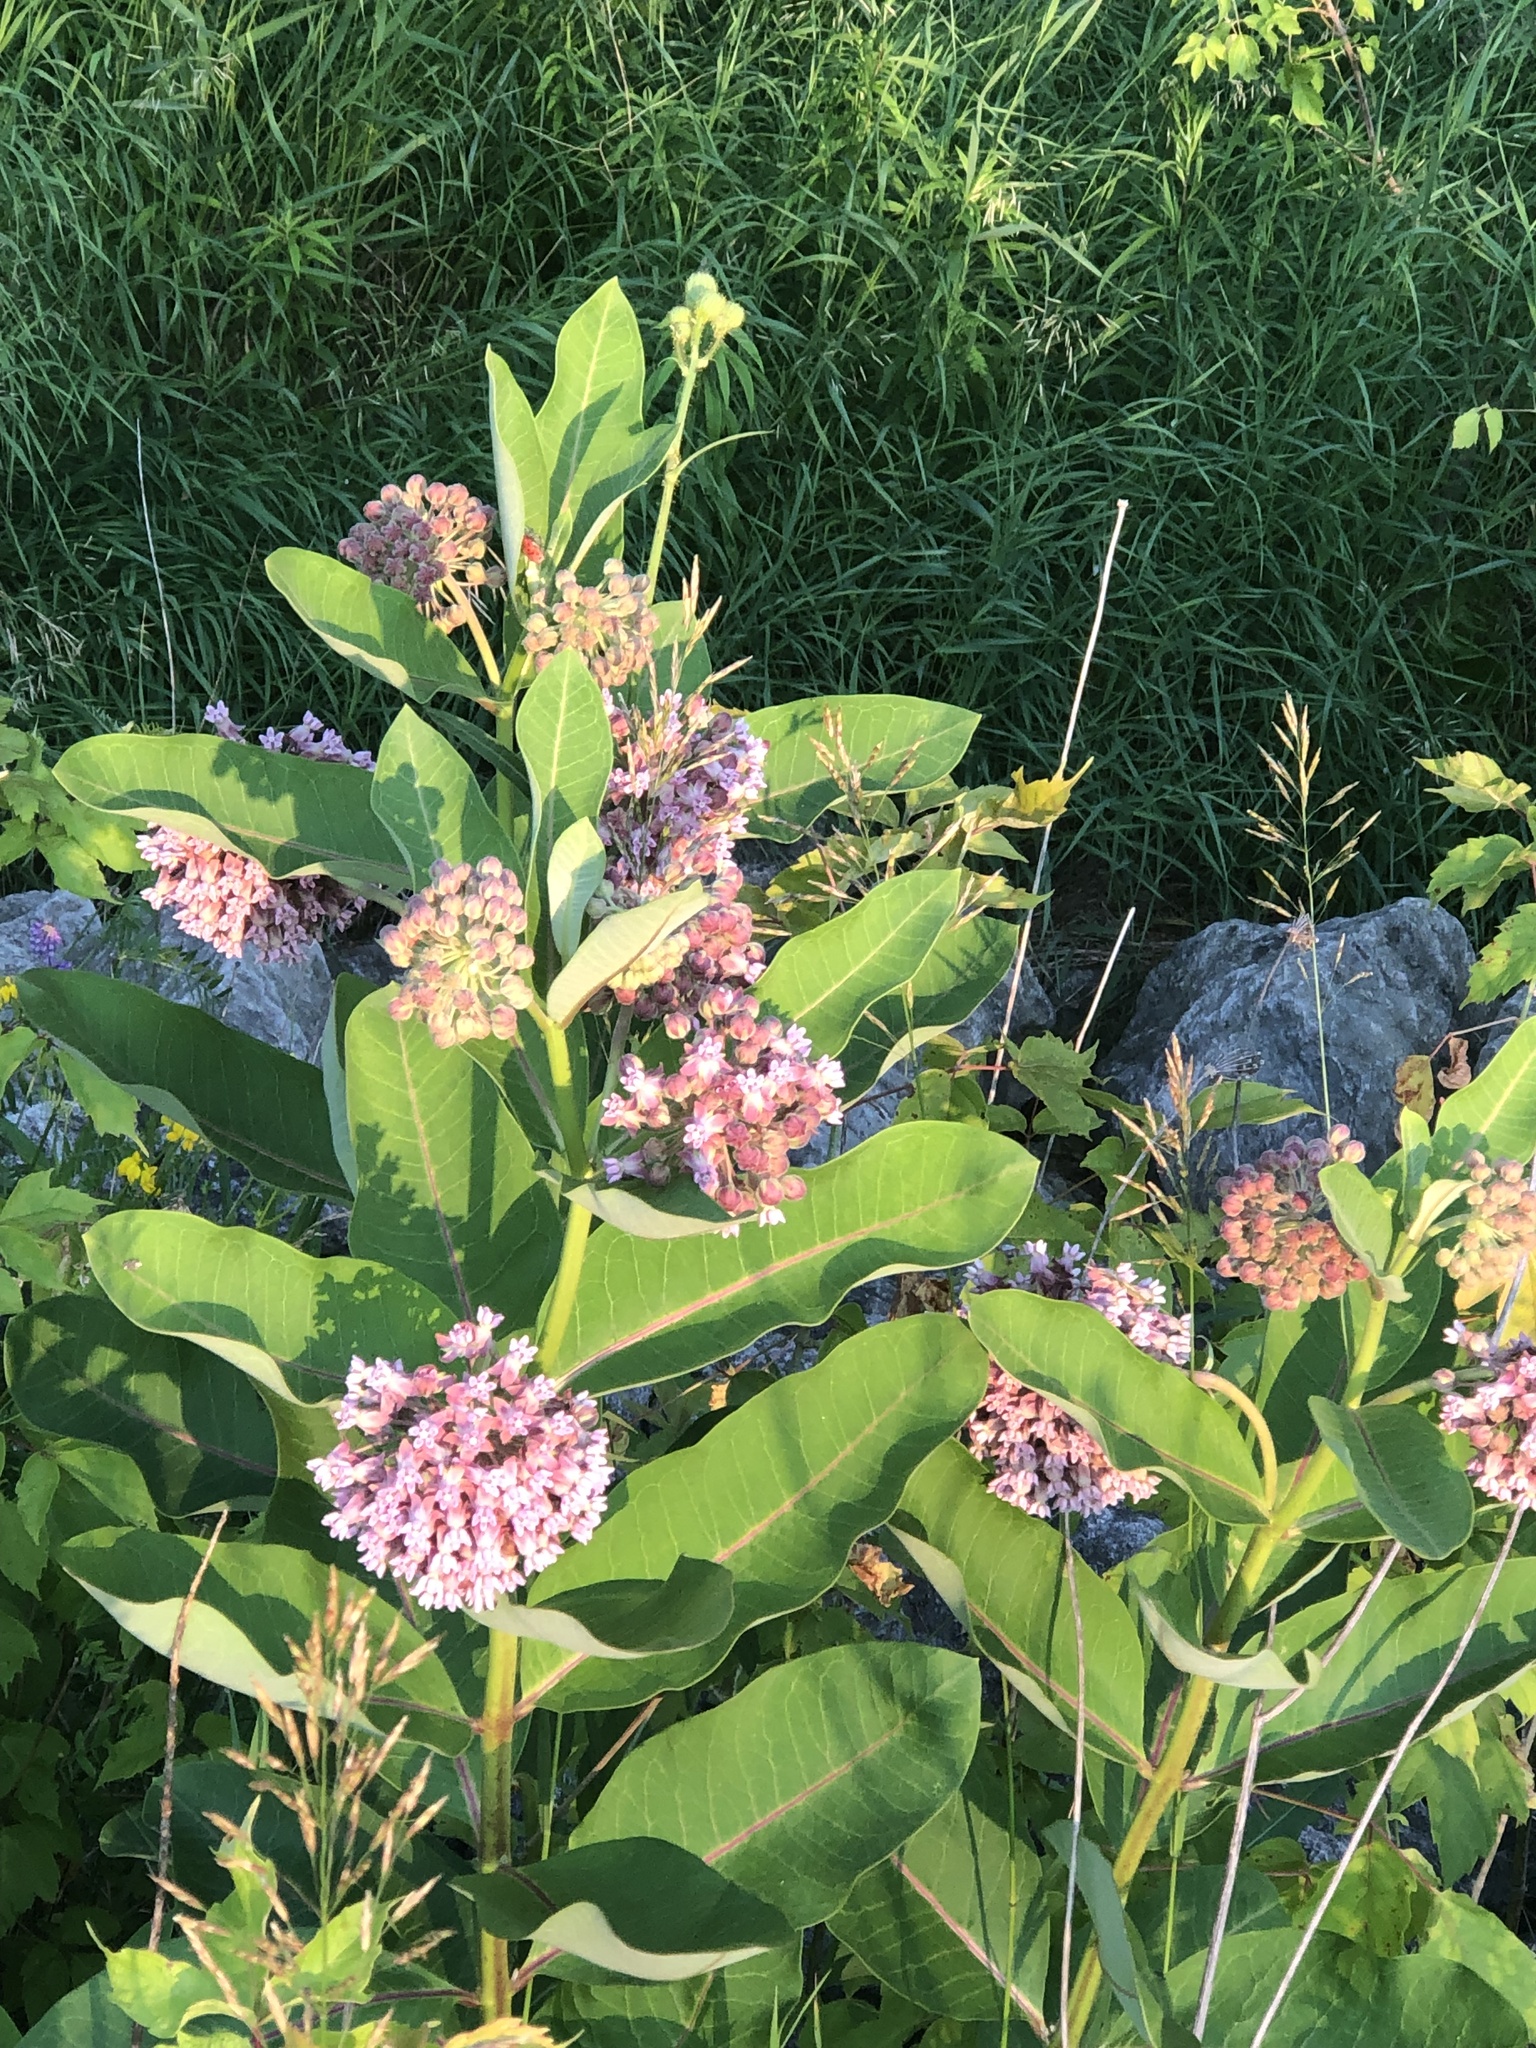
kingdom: Plantae
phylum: Tracheophyta
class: Magnoliopsida
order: Gentianales
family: Apocynaceae
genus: Asclepias
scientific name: Asclepias syriaca
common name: Common milkweed
